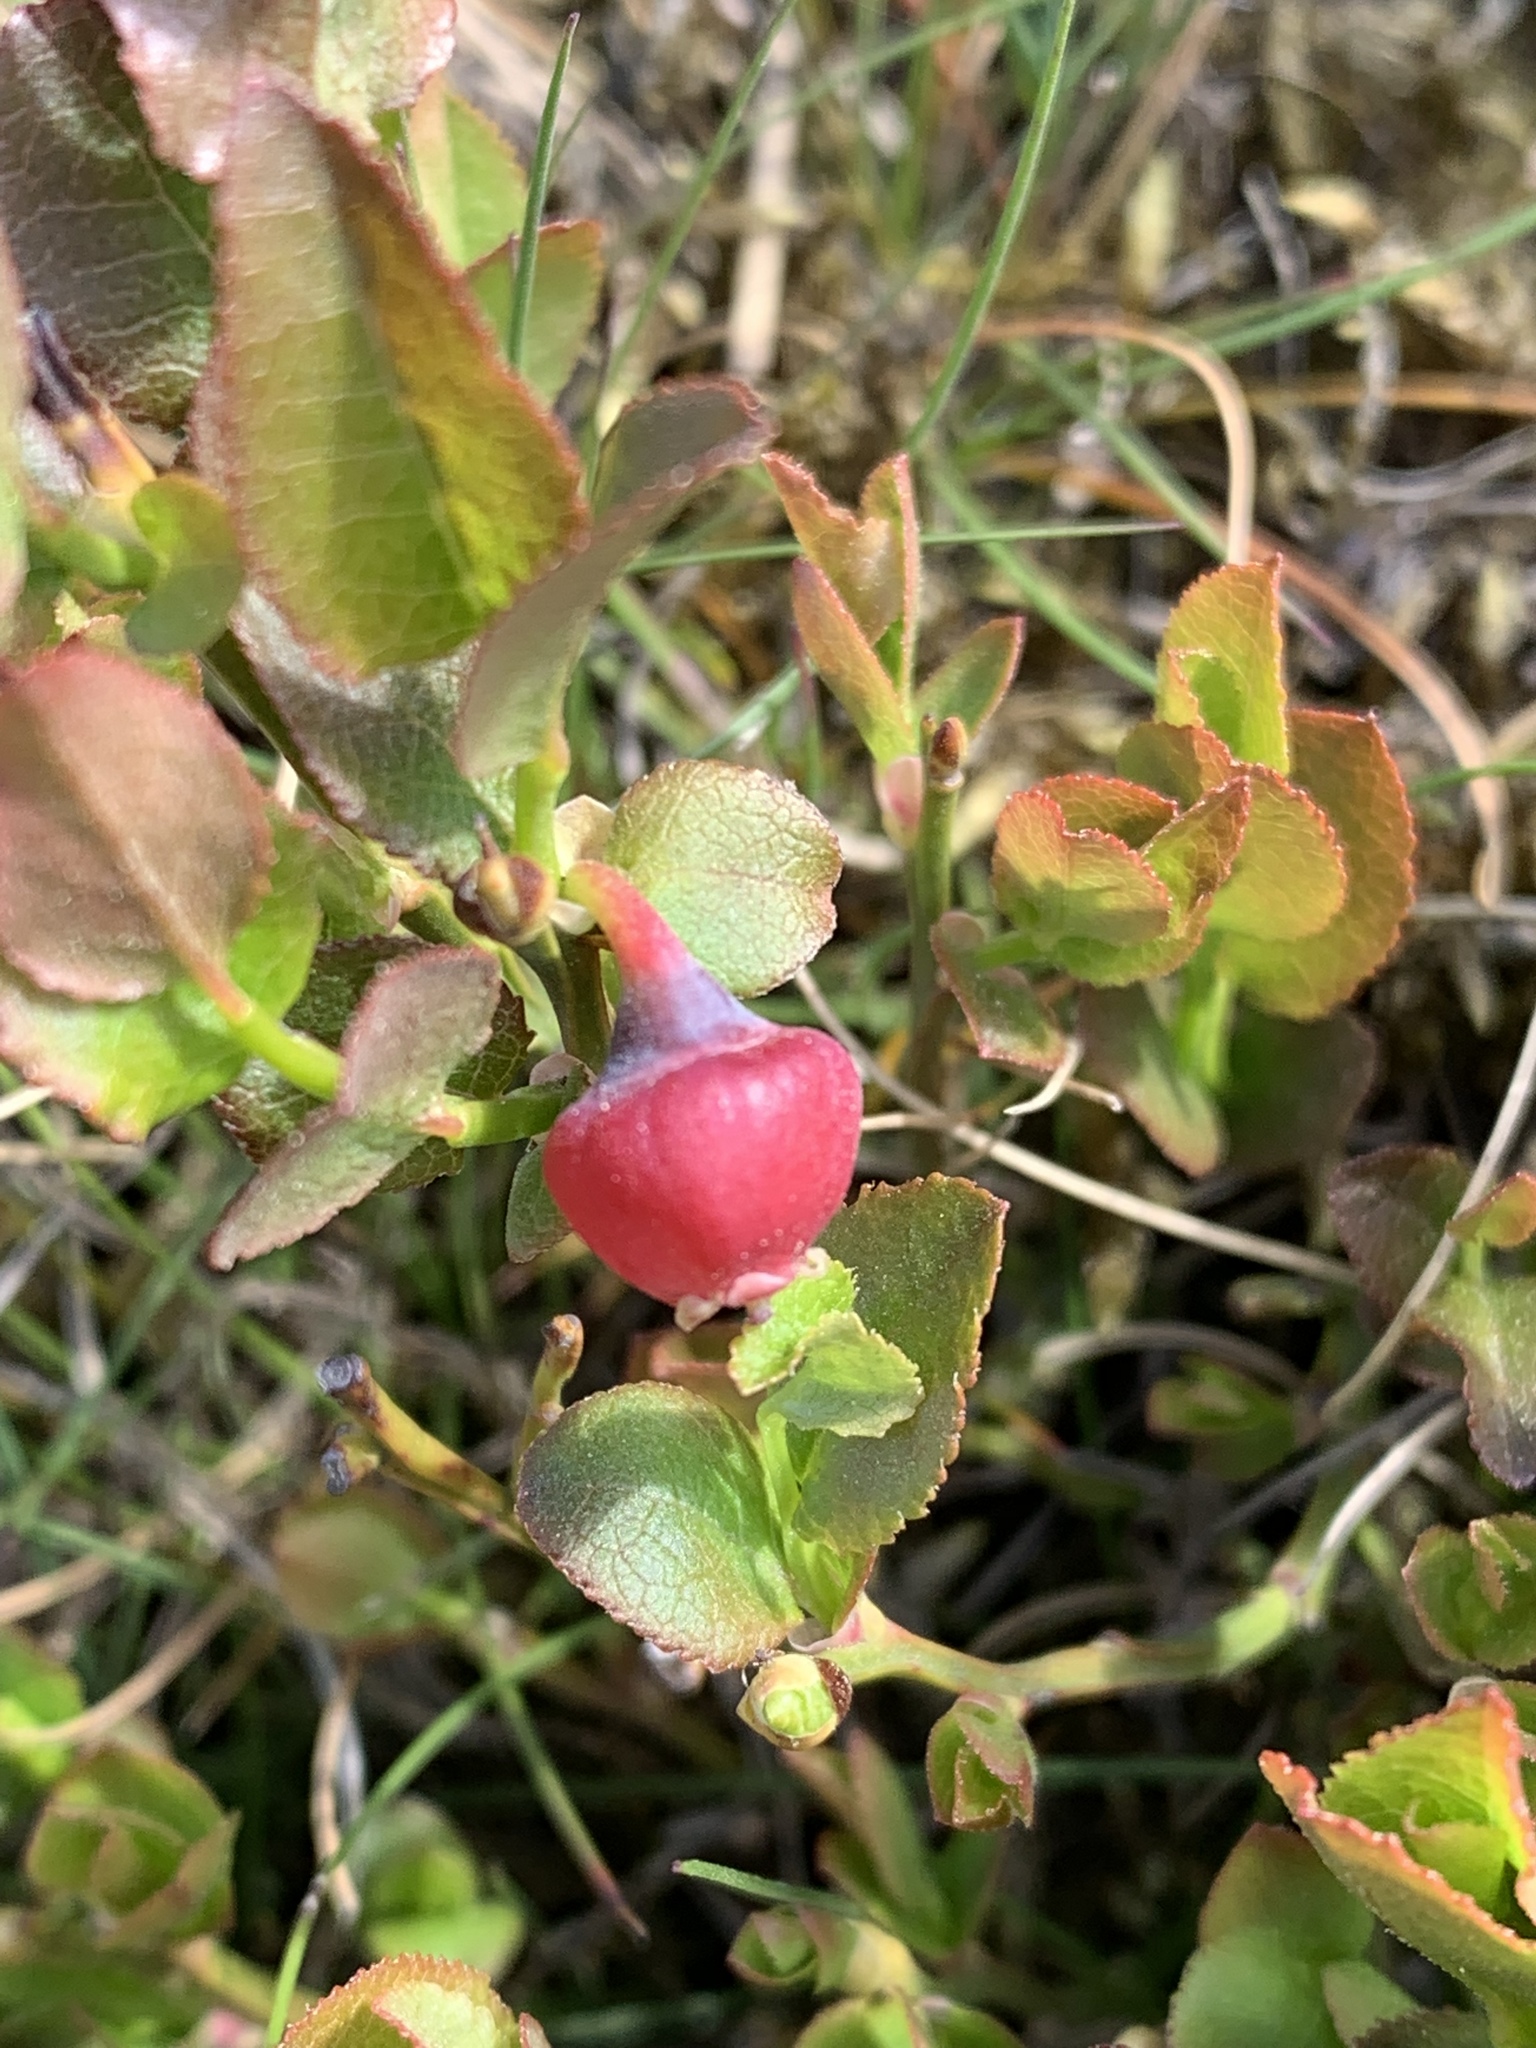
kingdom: Plantae
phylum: Tracheophyta
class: Magnoliopsida
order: Ericales
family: Ericaceae
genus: Vaccinium
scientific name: Vaccinium myrtillus
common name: Bilberry
